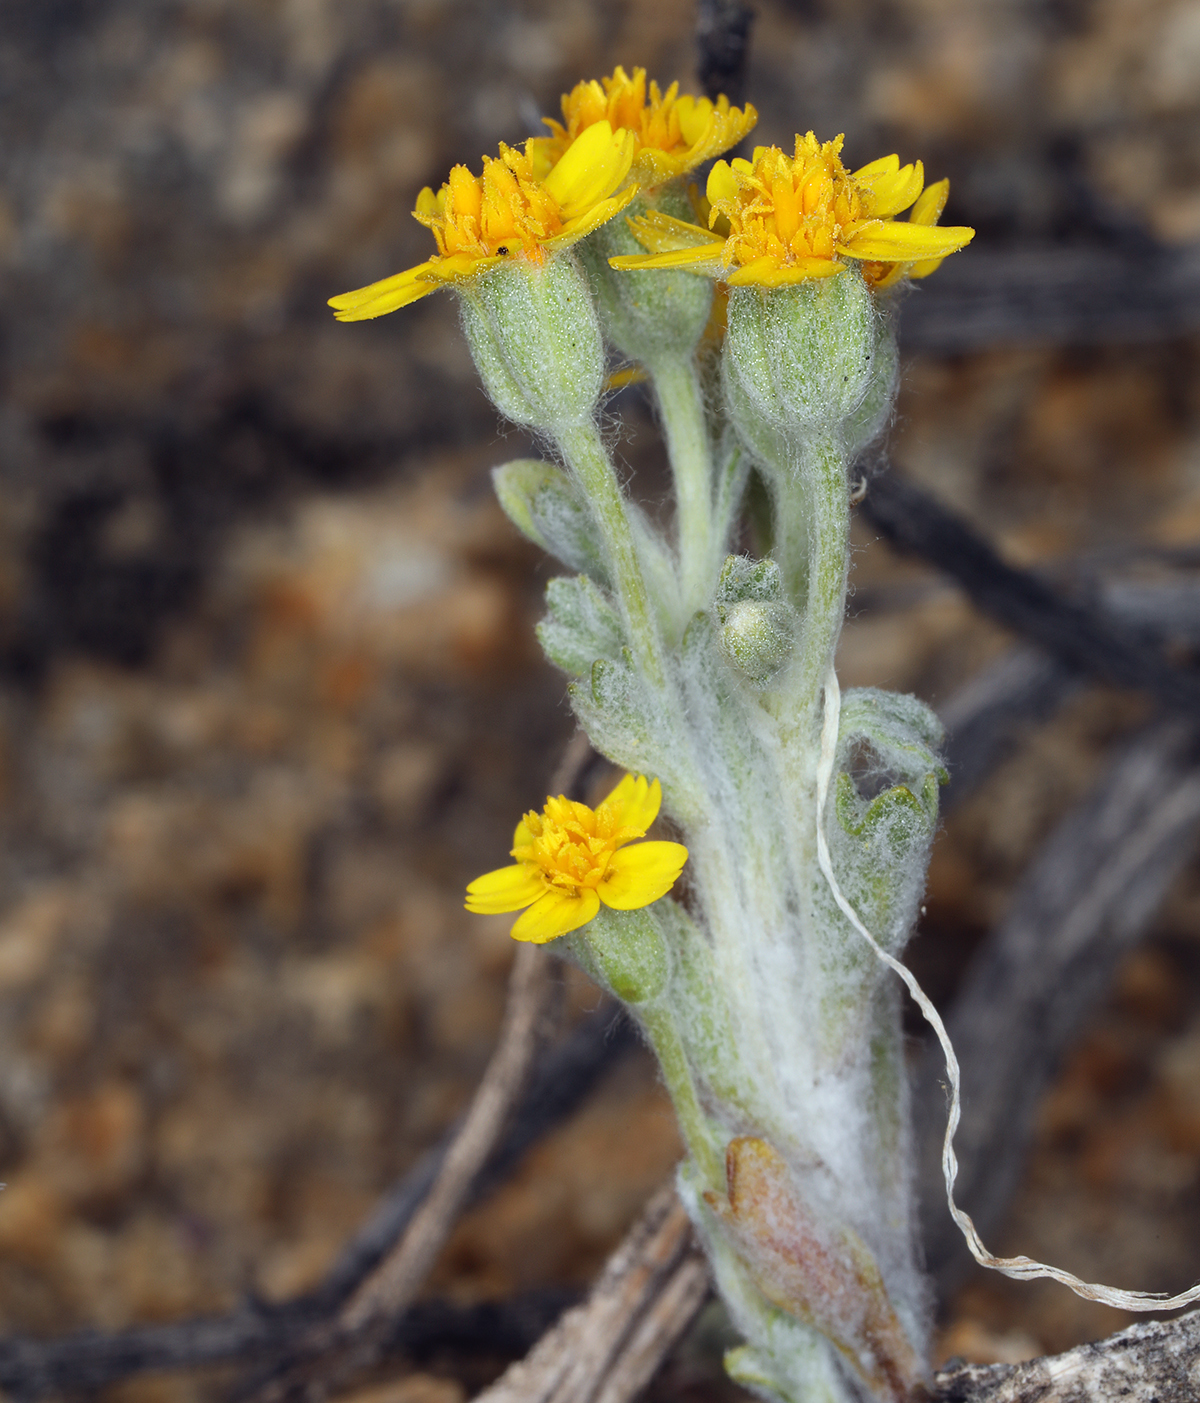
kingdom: Plantae
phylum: Tracheophyta
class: Magnoliopsida
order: Asterales
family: Asteraceae
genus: Syntrichopappus
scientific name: Syntrichopappus fremontii
